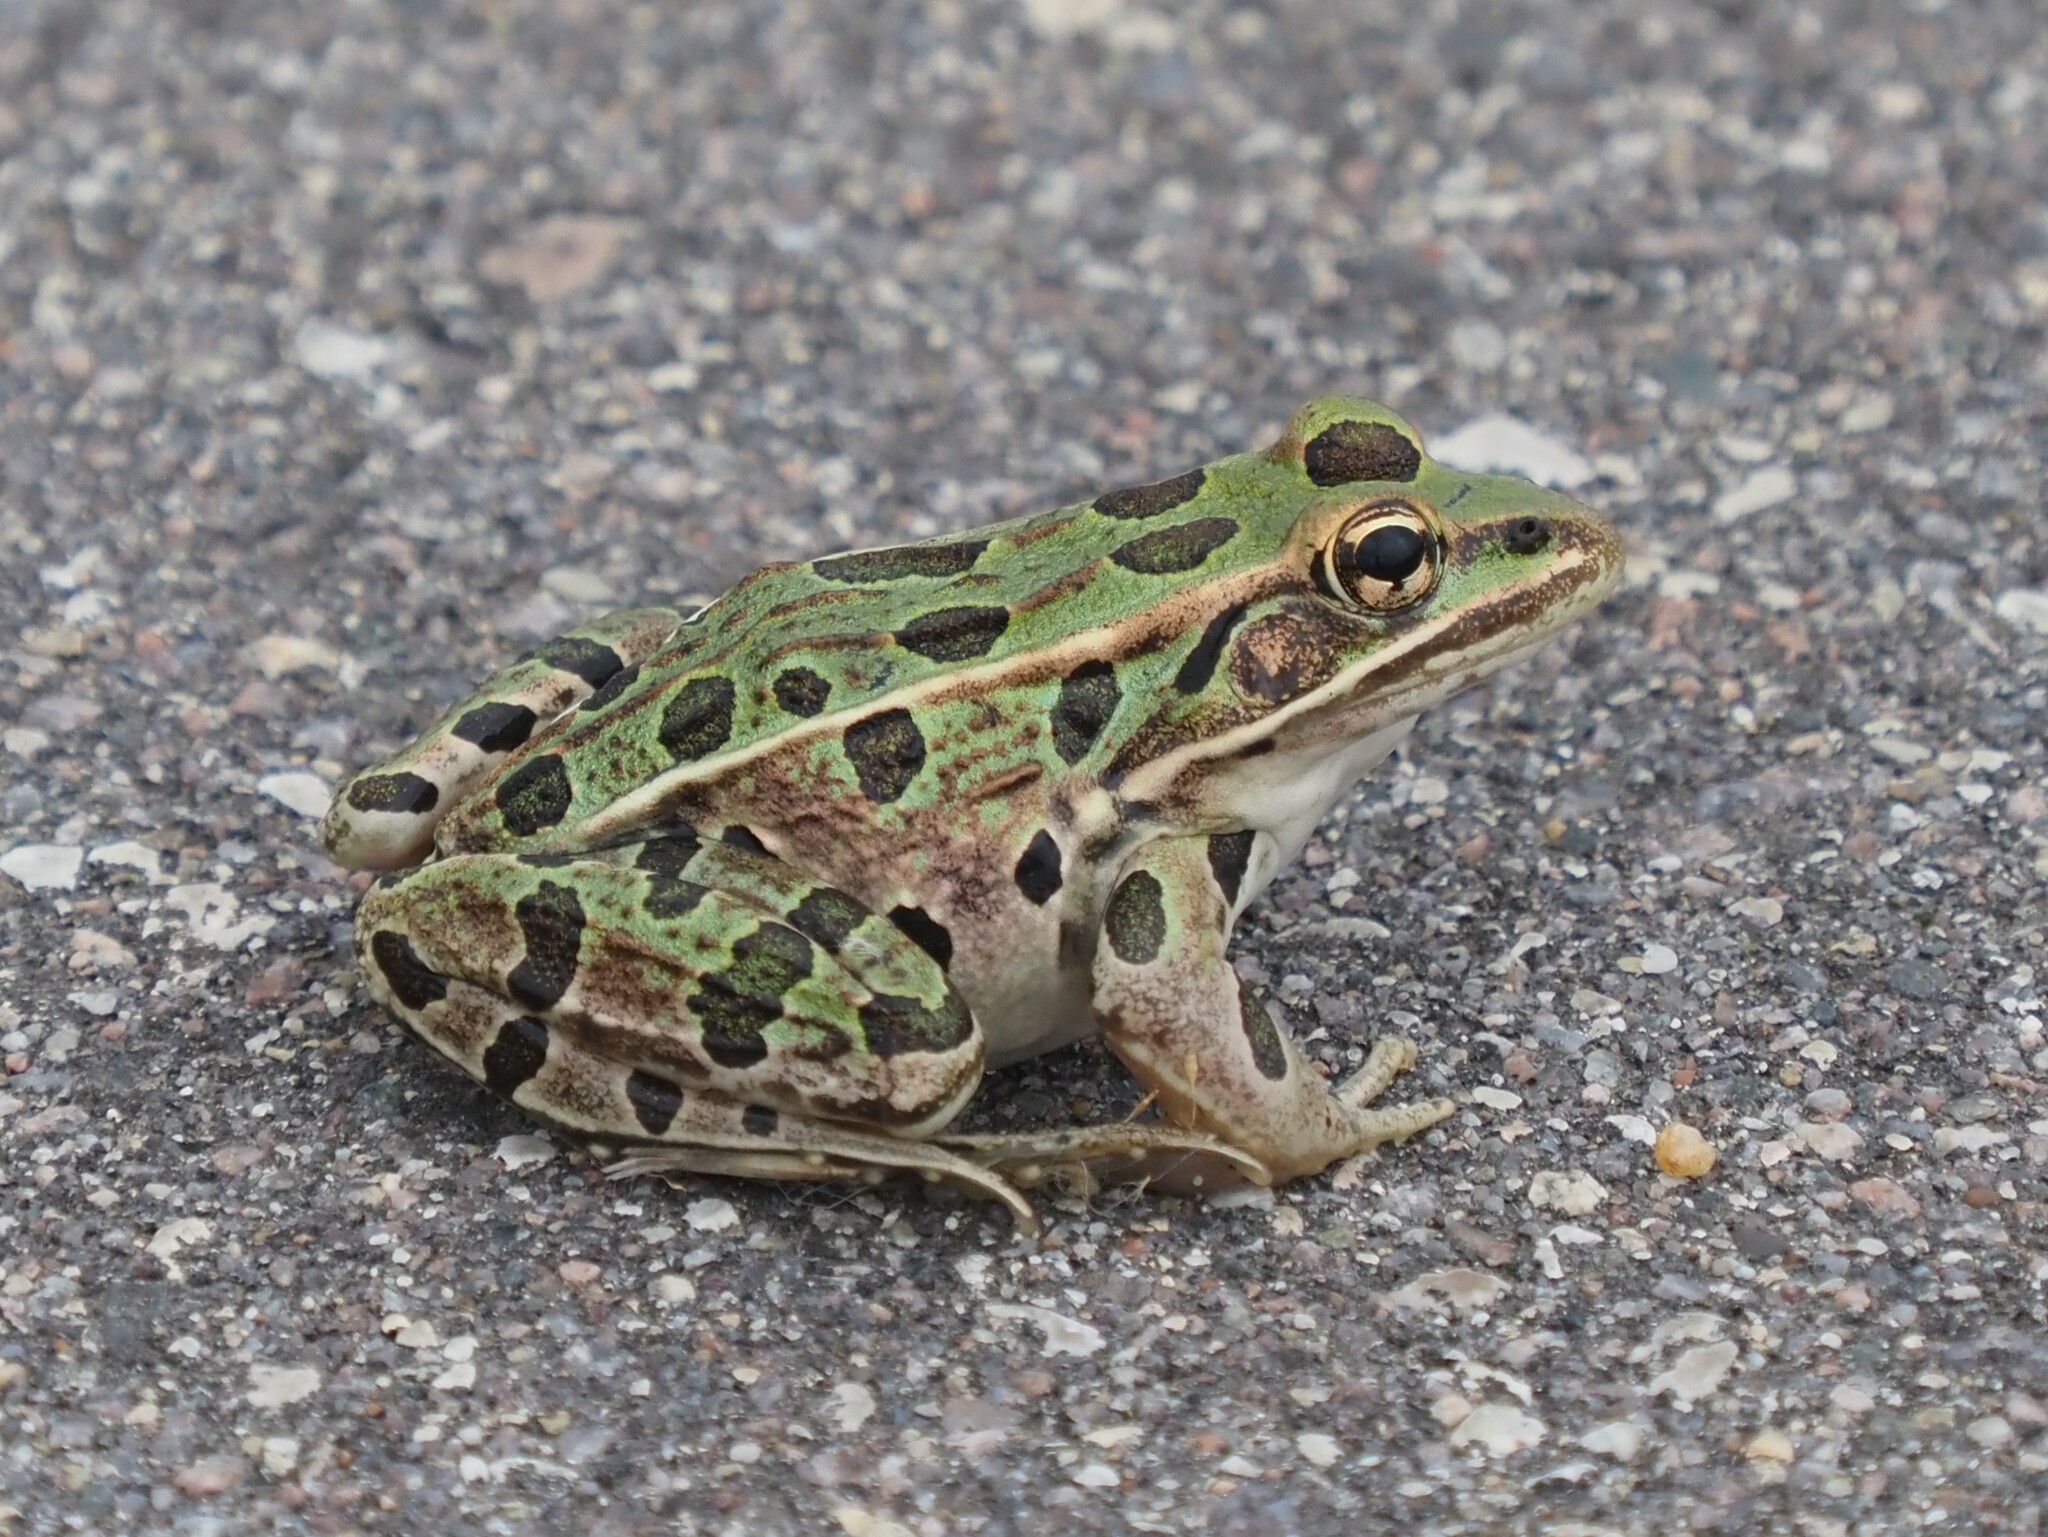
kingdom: Animalia
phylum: Chordata
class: Amphibia
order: Anura
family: Ranidae
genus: Lithobates
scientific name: Lithobates pipiens
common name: Northern leopard frog
